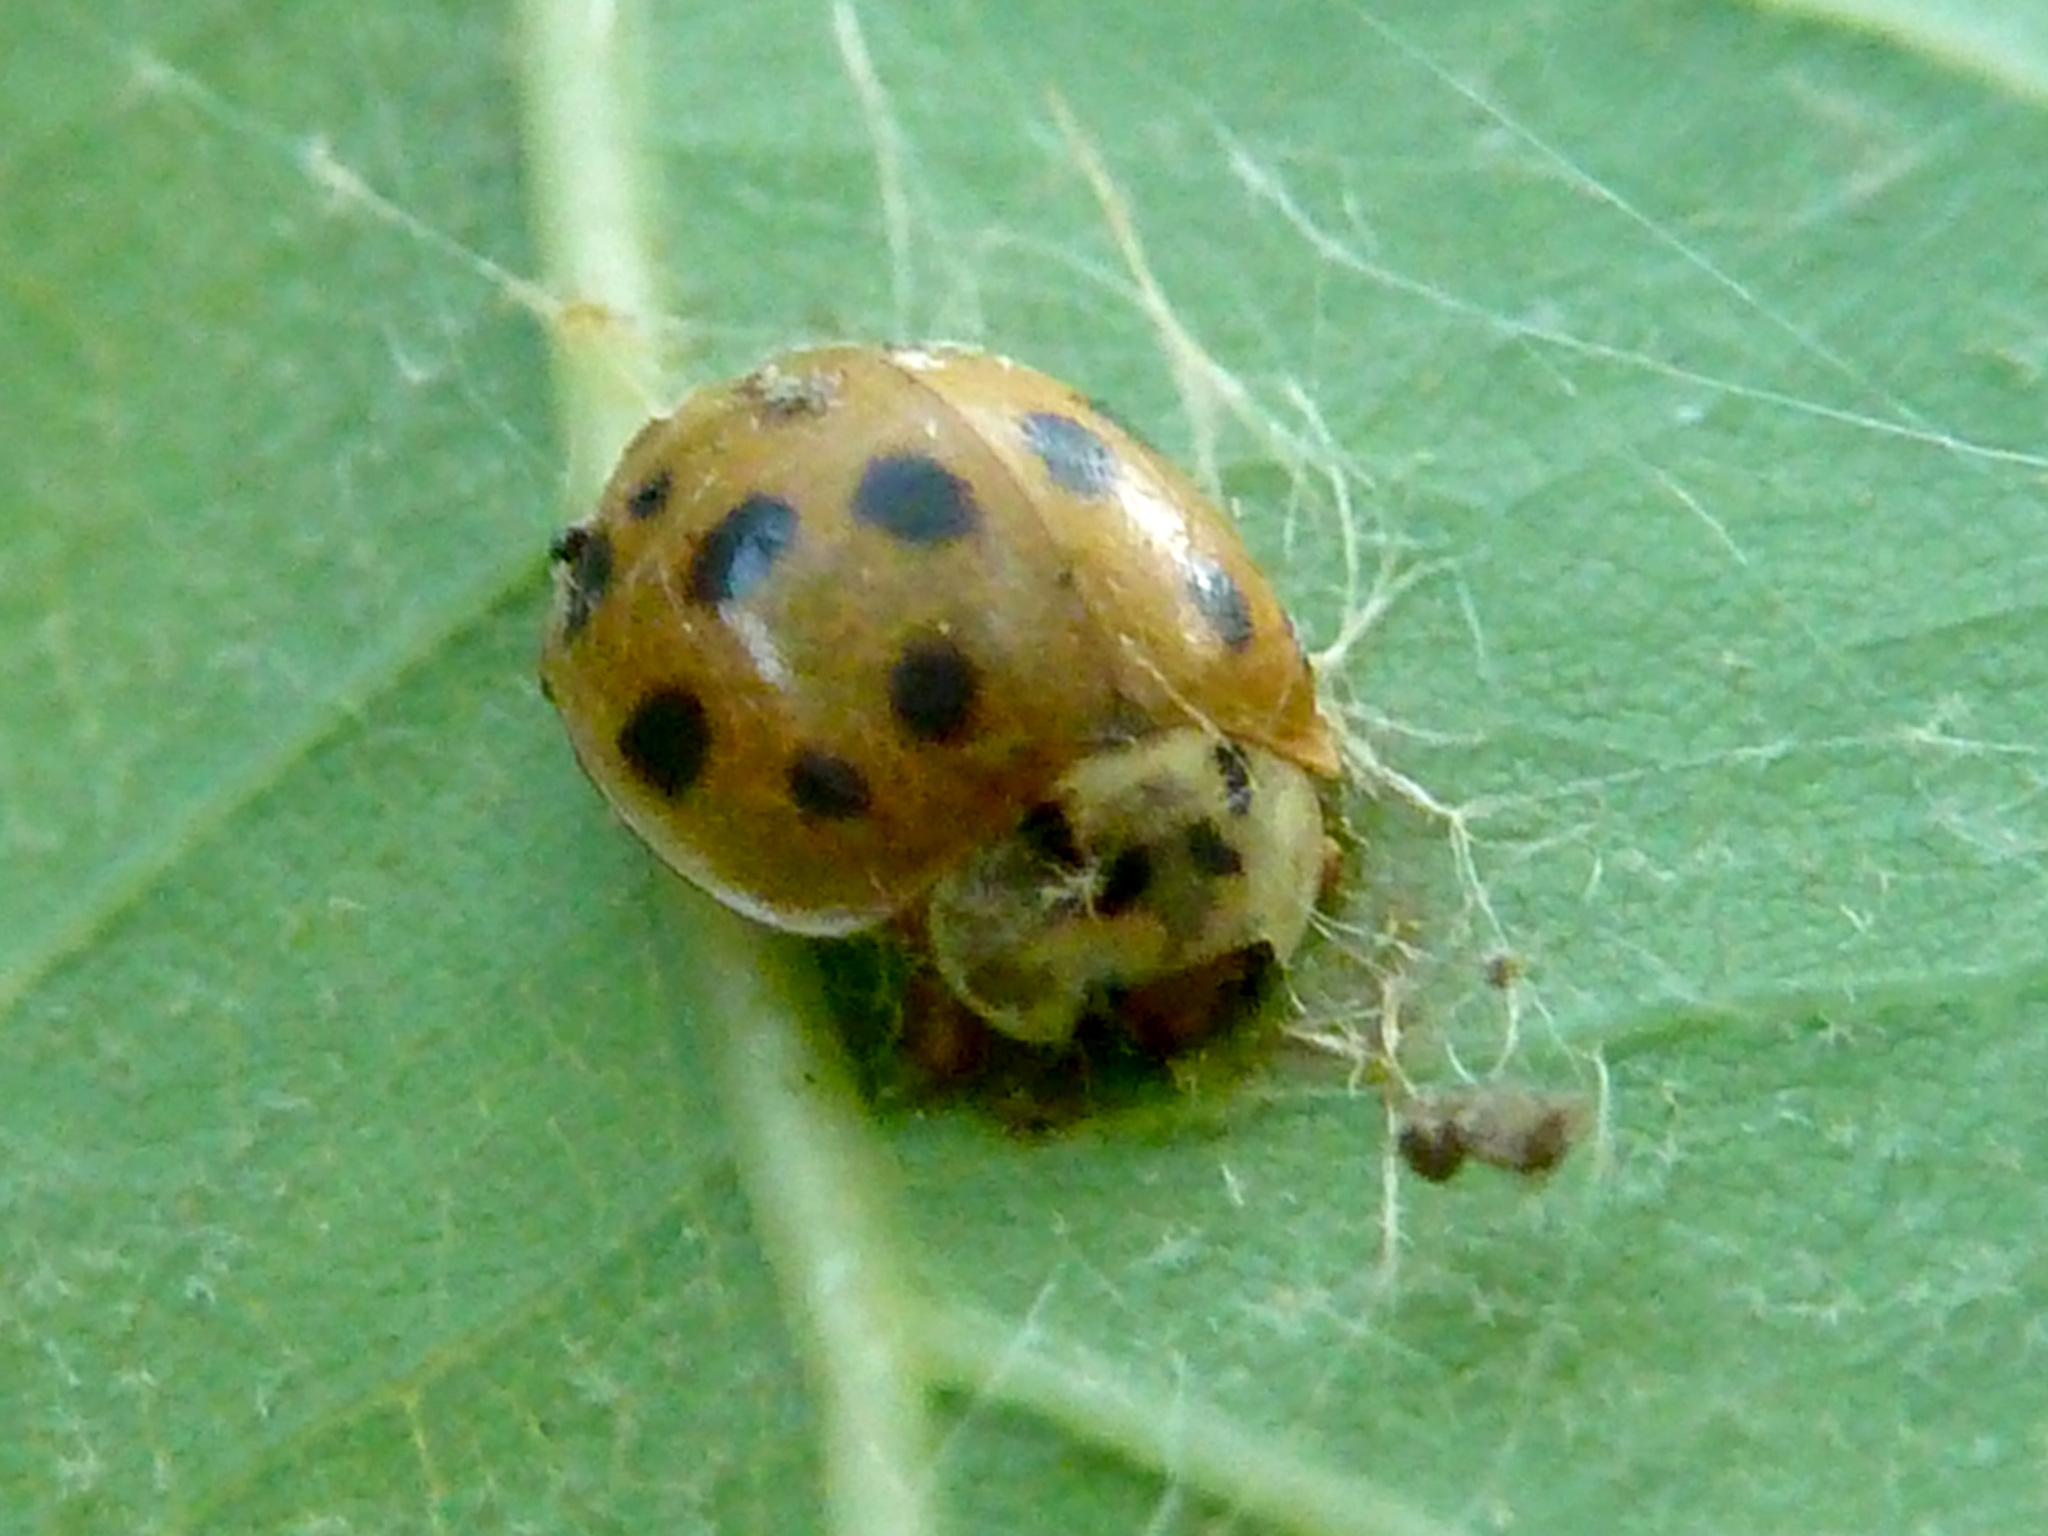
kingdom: Animalia
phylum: Arthropoda
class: Insecta
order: Coleoptera
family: Coccinellidae
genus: Harmonia
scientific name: Harmonia axyridis
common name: Harlequin ladybird
